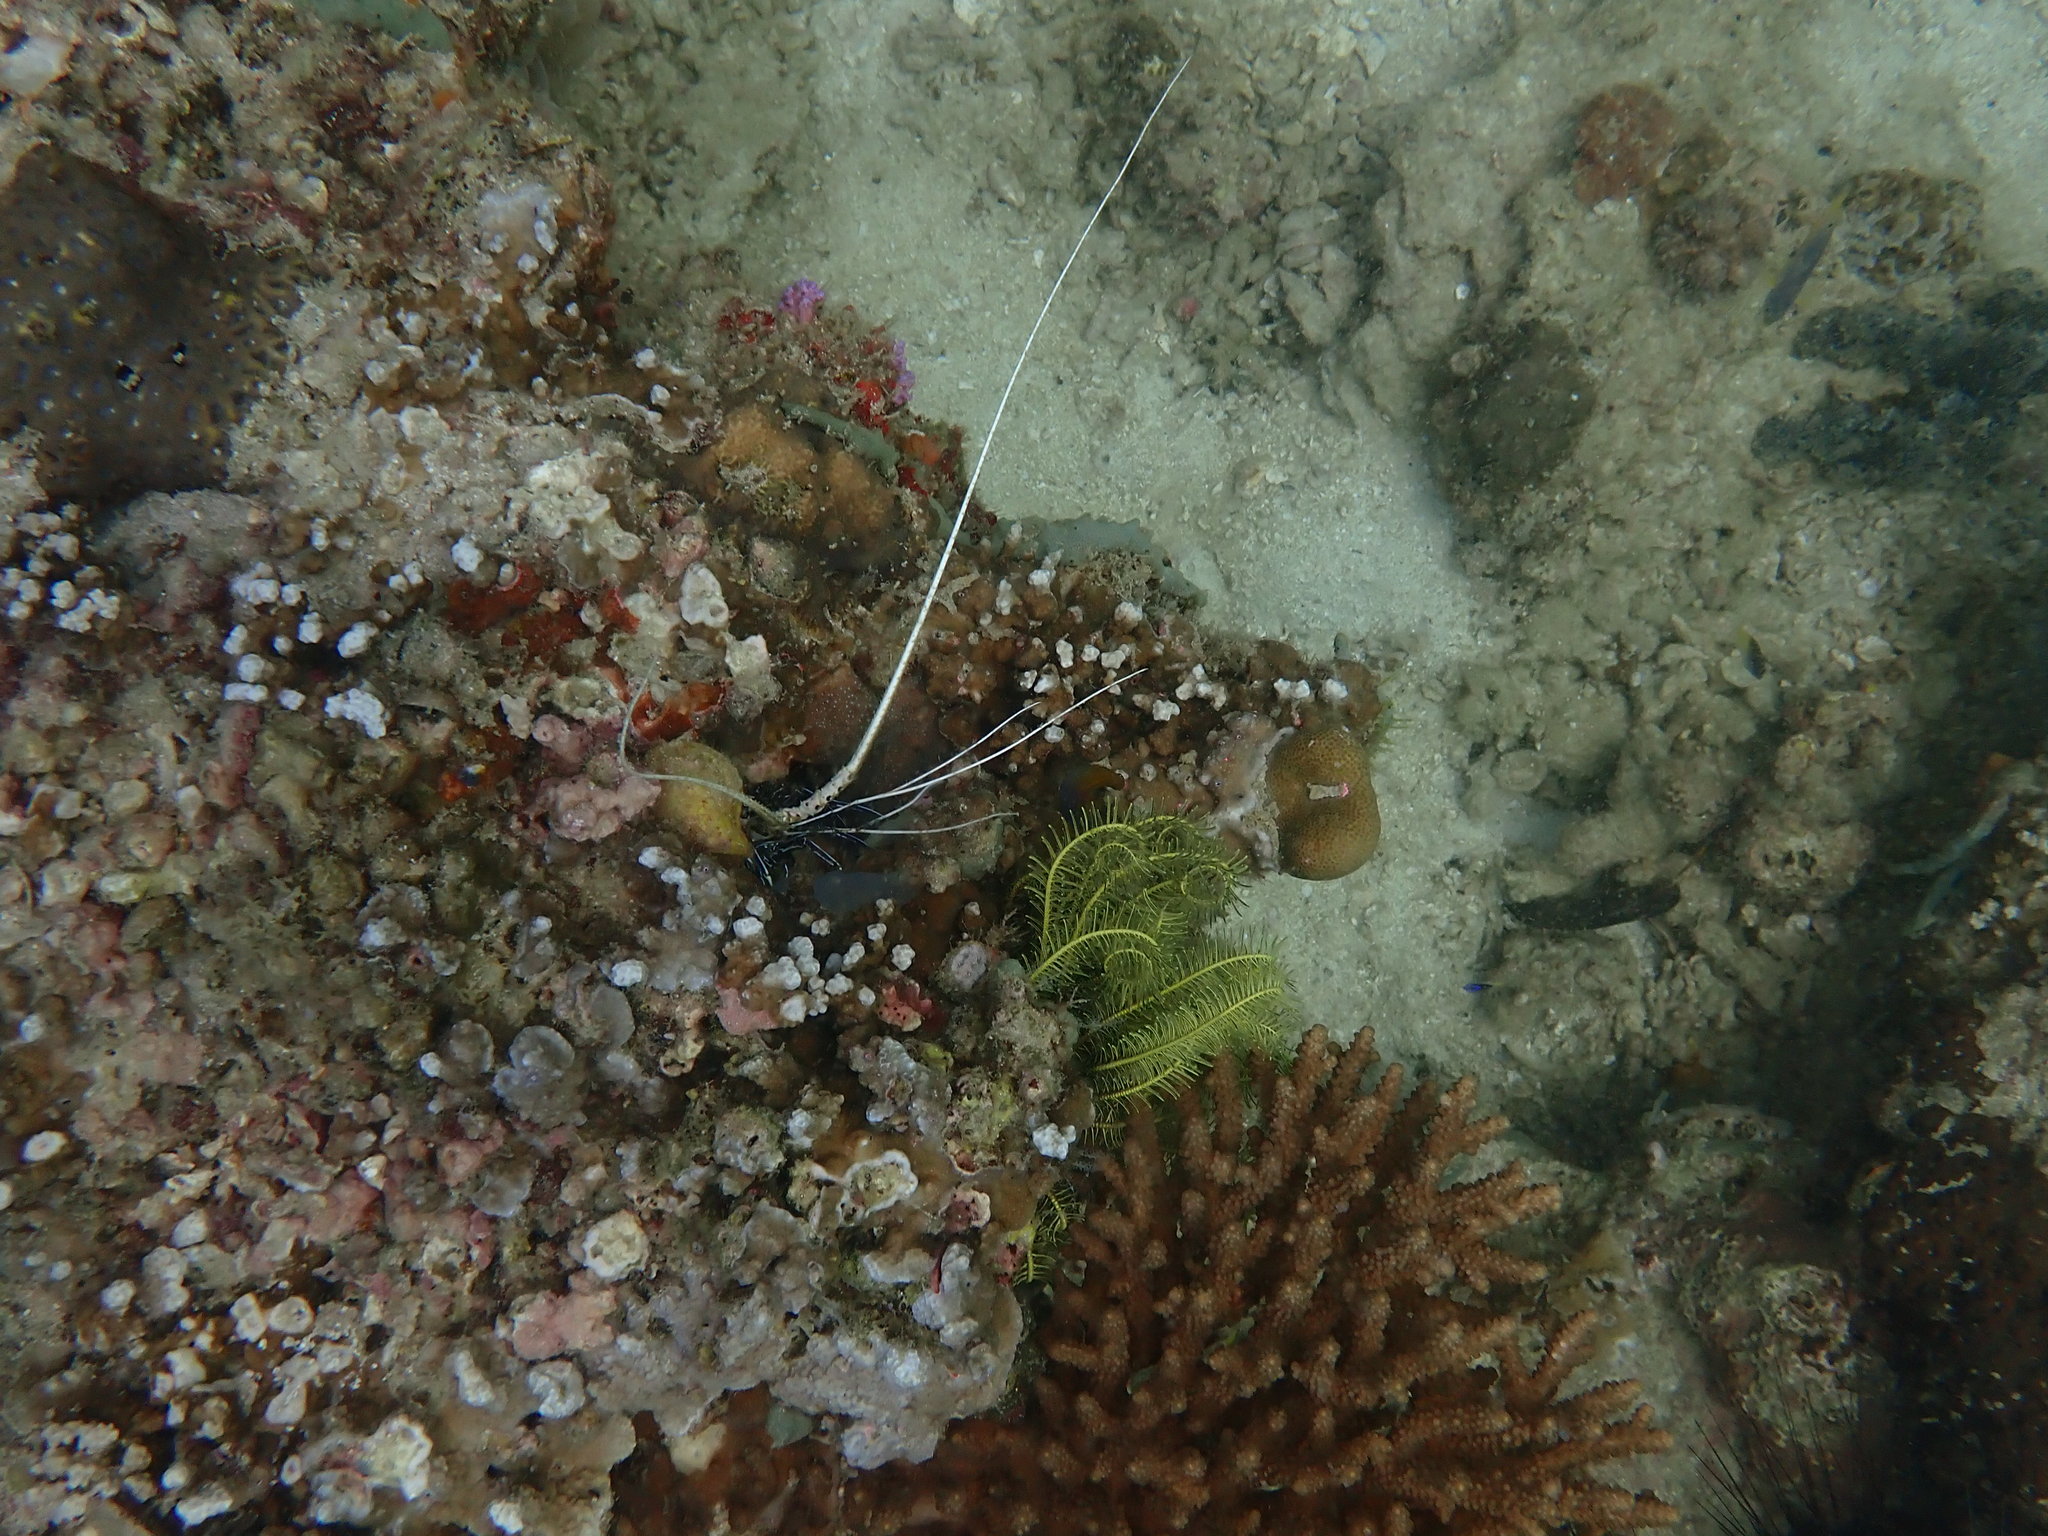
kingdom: Animalia
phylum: Arthropoda
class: Malacostraca
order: Decapoda
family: Palinuridae
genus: Panulirus
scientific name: Panulirus versicolor
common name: Painted spiny lobster
